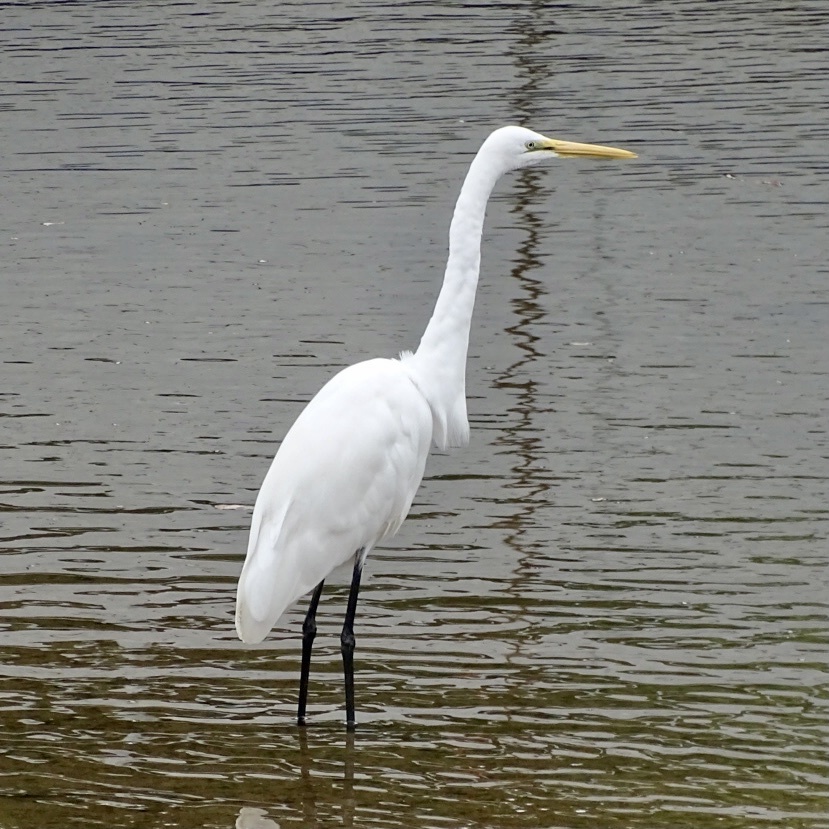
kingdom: Animalia
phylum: Chordata
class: Aves
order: Pelecaniformes
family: Ardeidae
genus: Ardea
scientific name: Ardea alba
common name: Great egret
